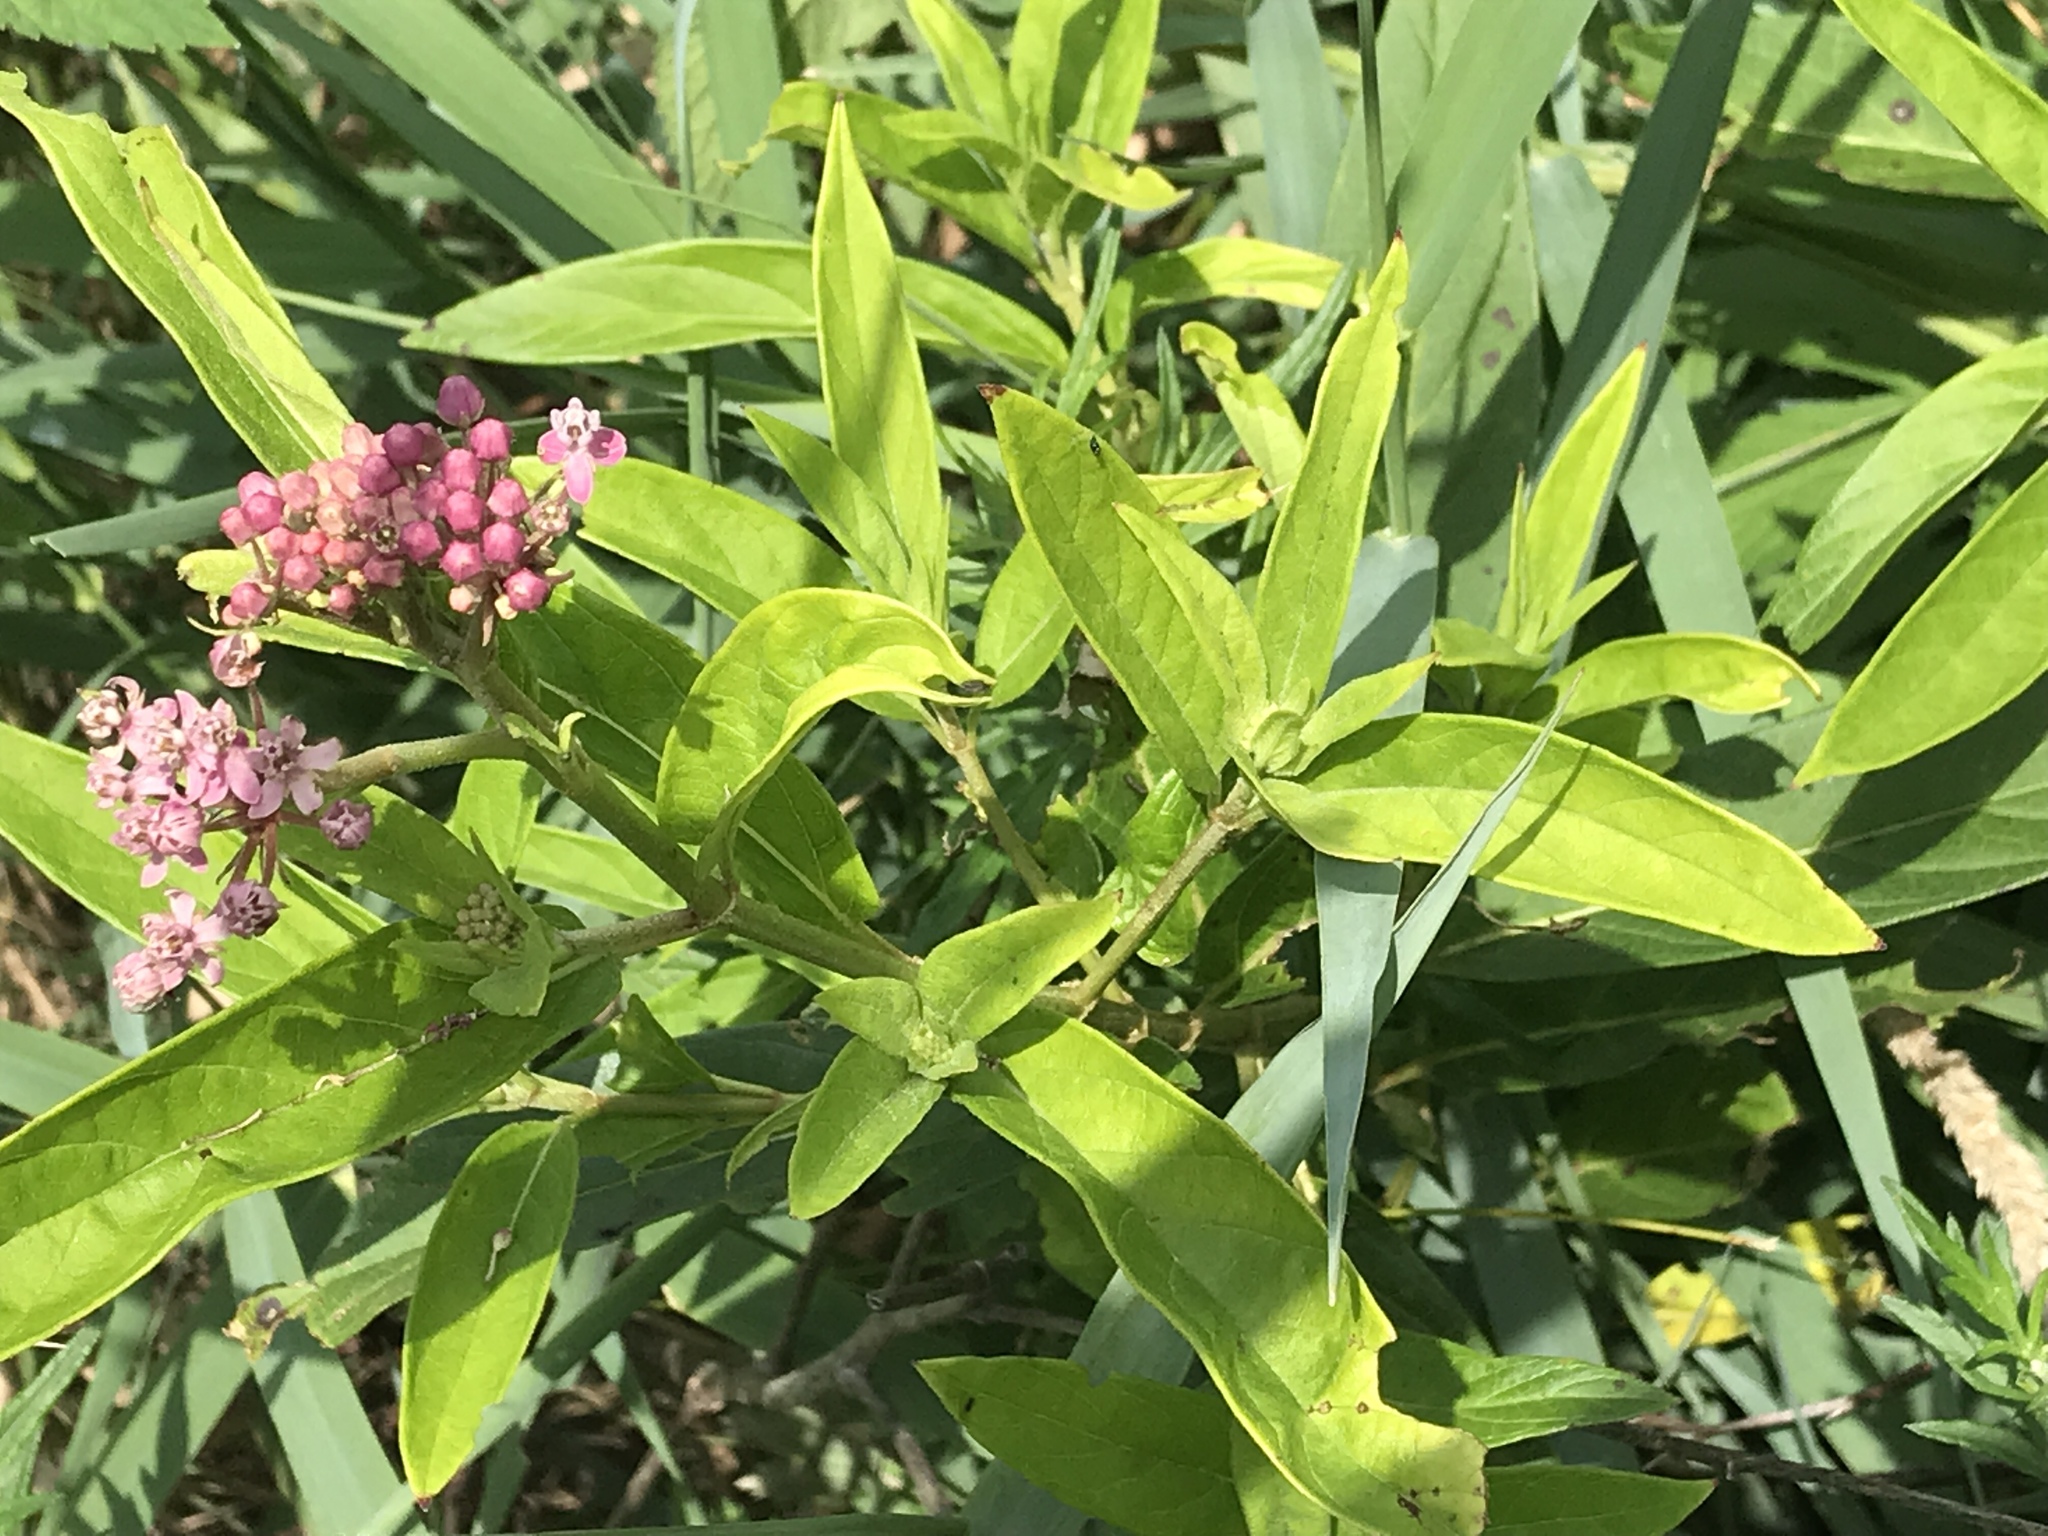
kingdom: Plantae
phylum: Tracheophyta
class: Magnoliopsida
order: Gentianales
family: Apocynaceae
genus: Asclepias
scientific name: Asclepias incarnata
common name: Swamp milkweed
